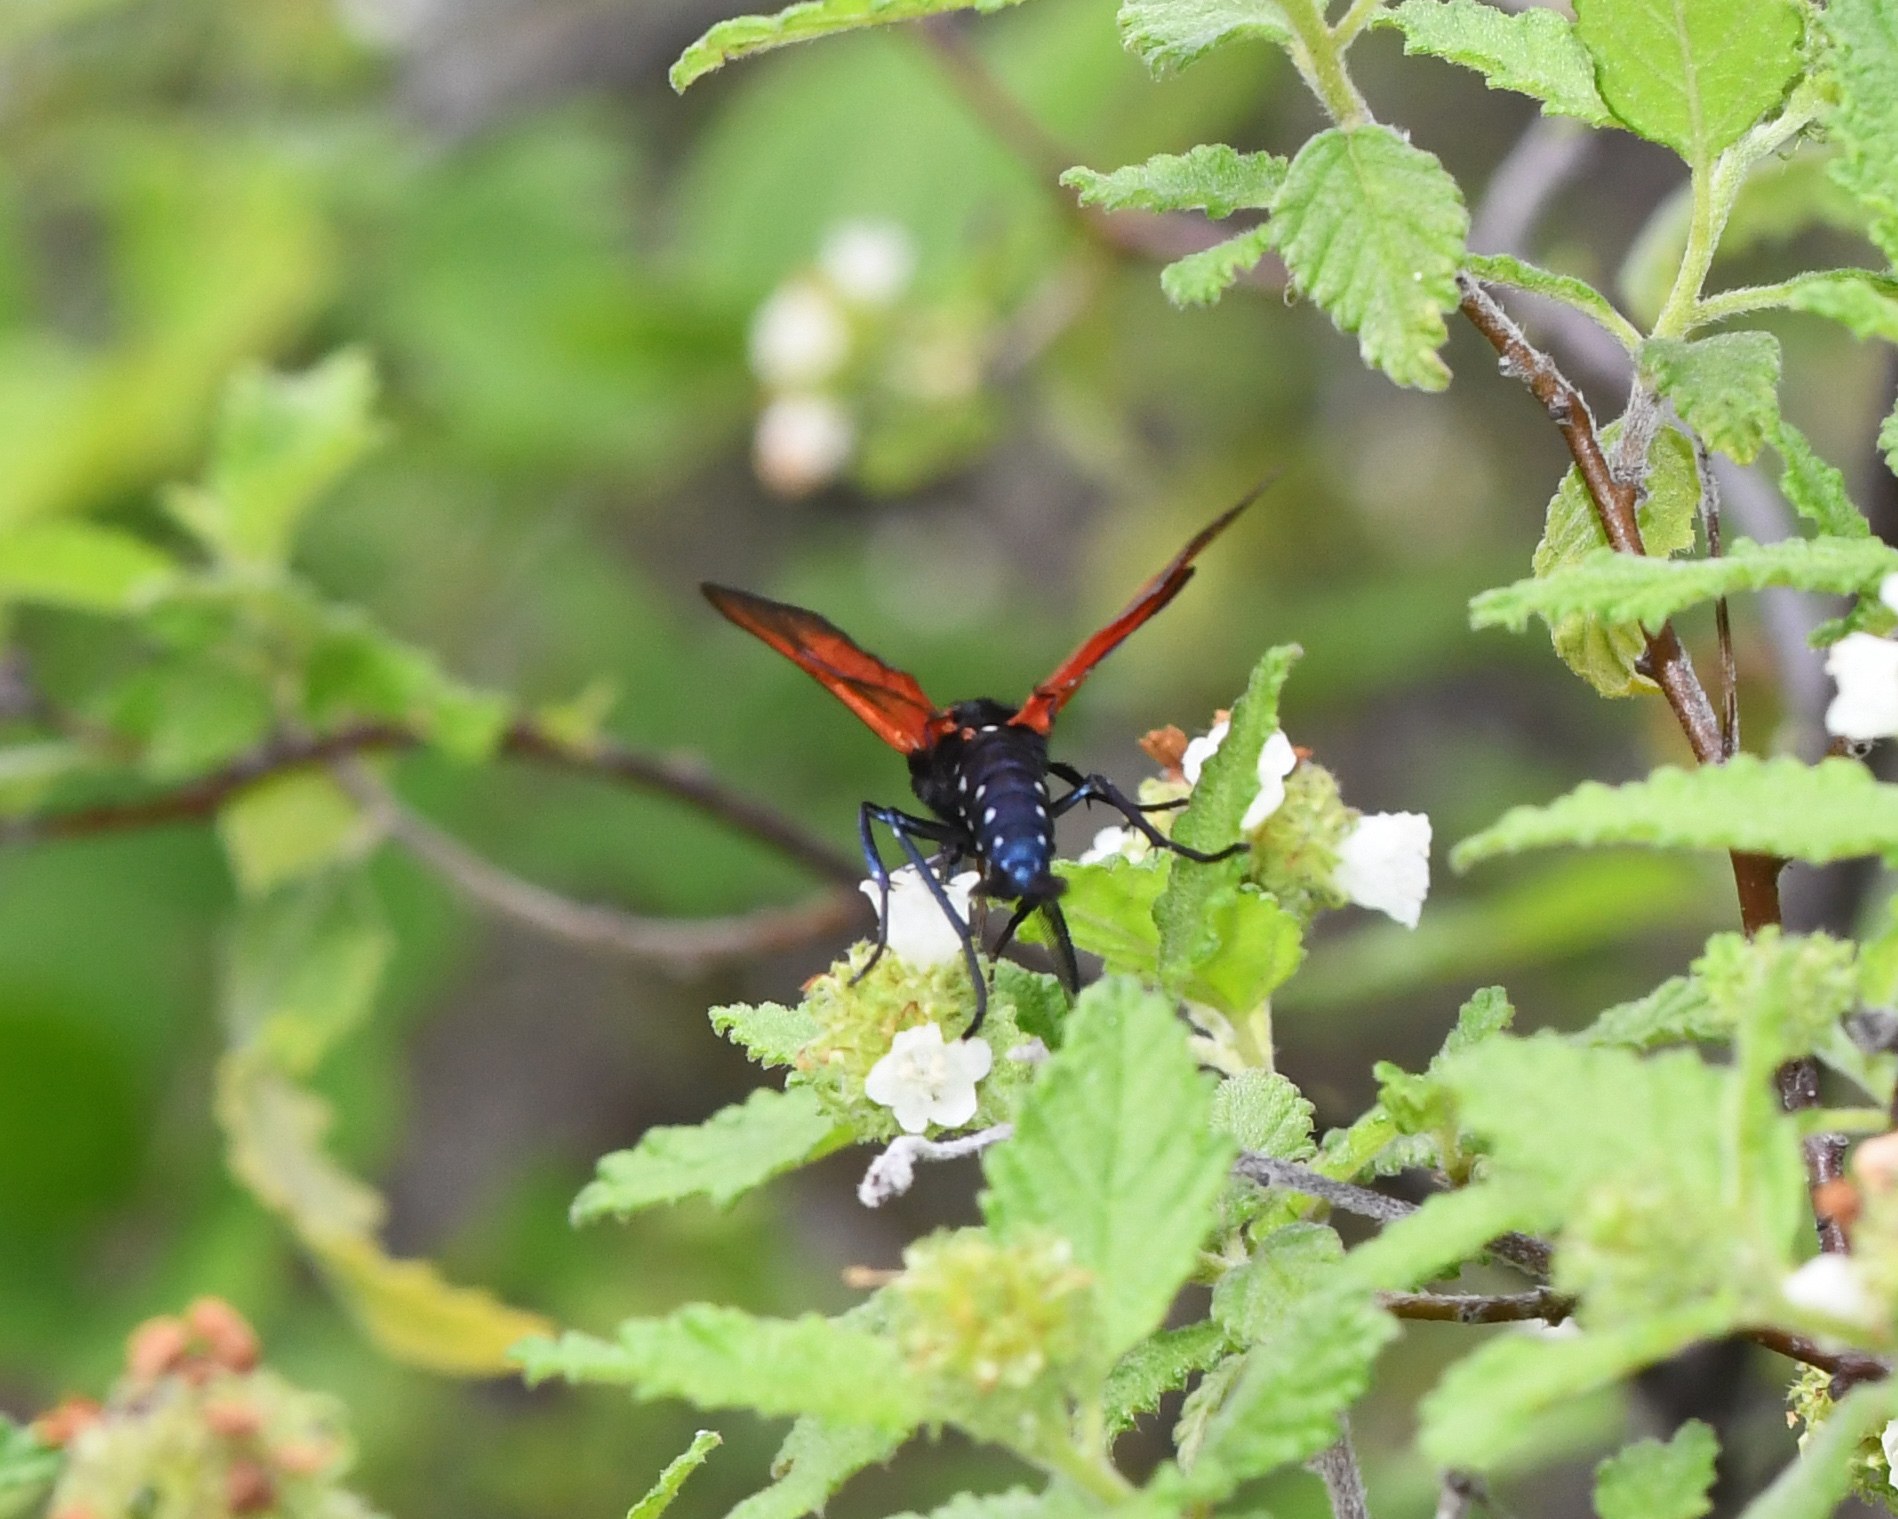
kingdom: Animalia
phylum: Arthropoda
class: Insecta
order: Lepidoptera
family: Erebidae
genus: Empyreuma
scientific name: Empyreuma pugione
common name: Spotted oleander caterpillar moth
